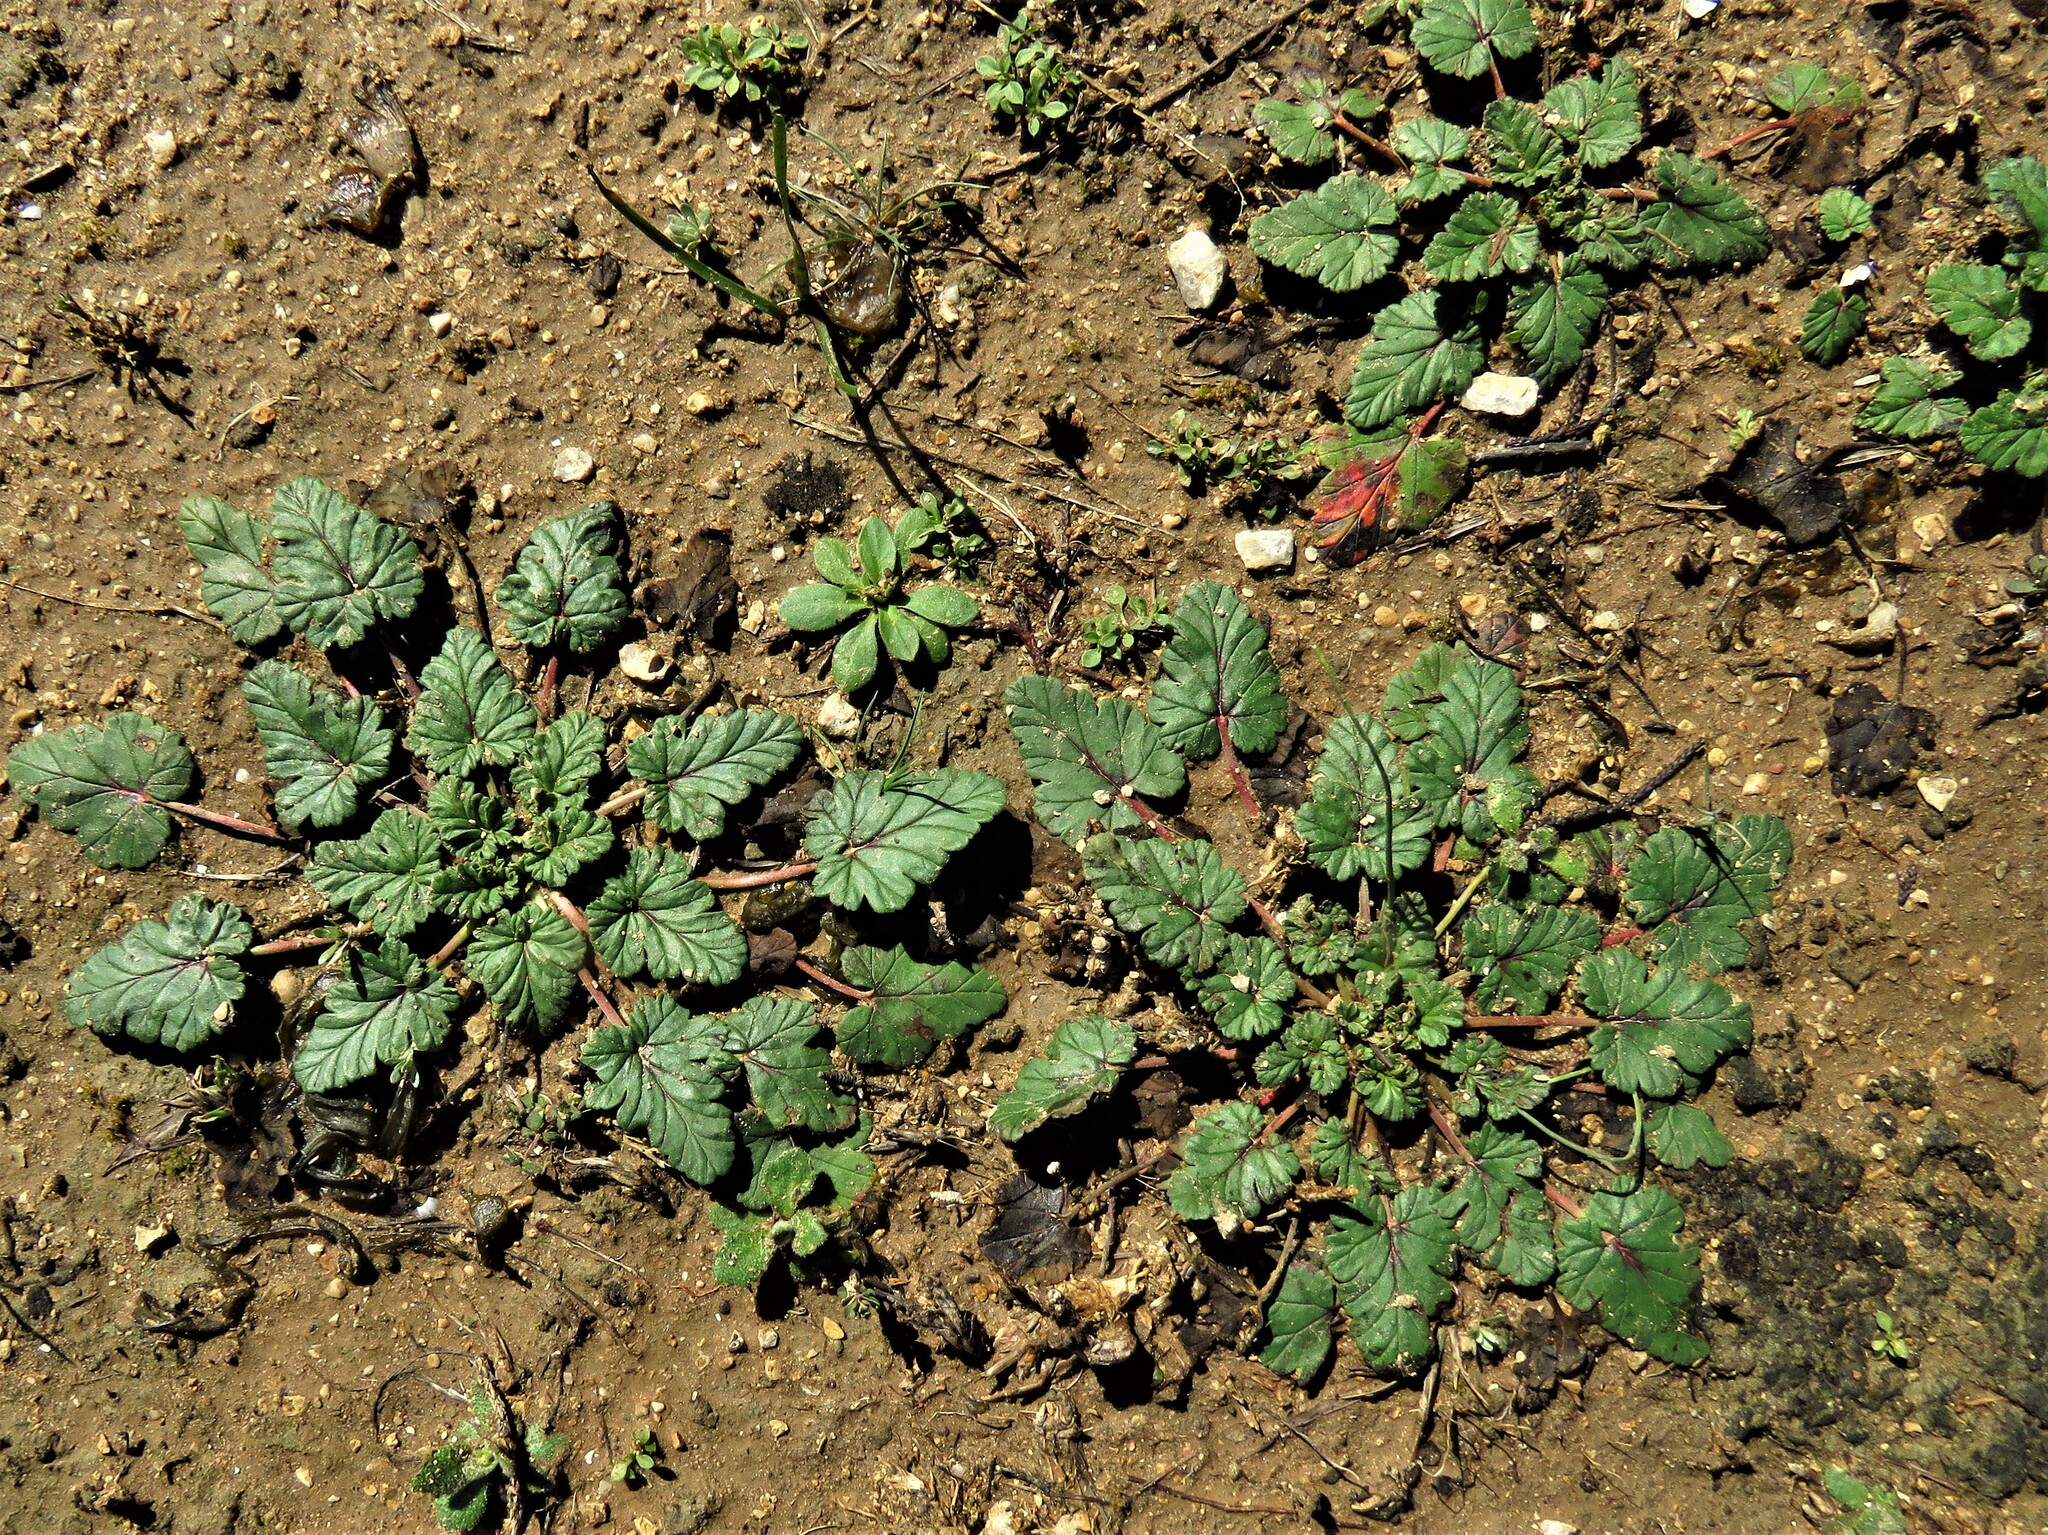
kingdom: Plantae
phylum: Tracheophyta
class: Magnoliopsida
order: Geraniales
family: Geraniaceae
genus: Erodium
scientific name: Erodium texanum
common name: Texas stork's-bill
